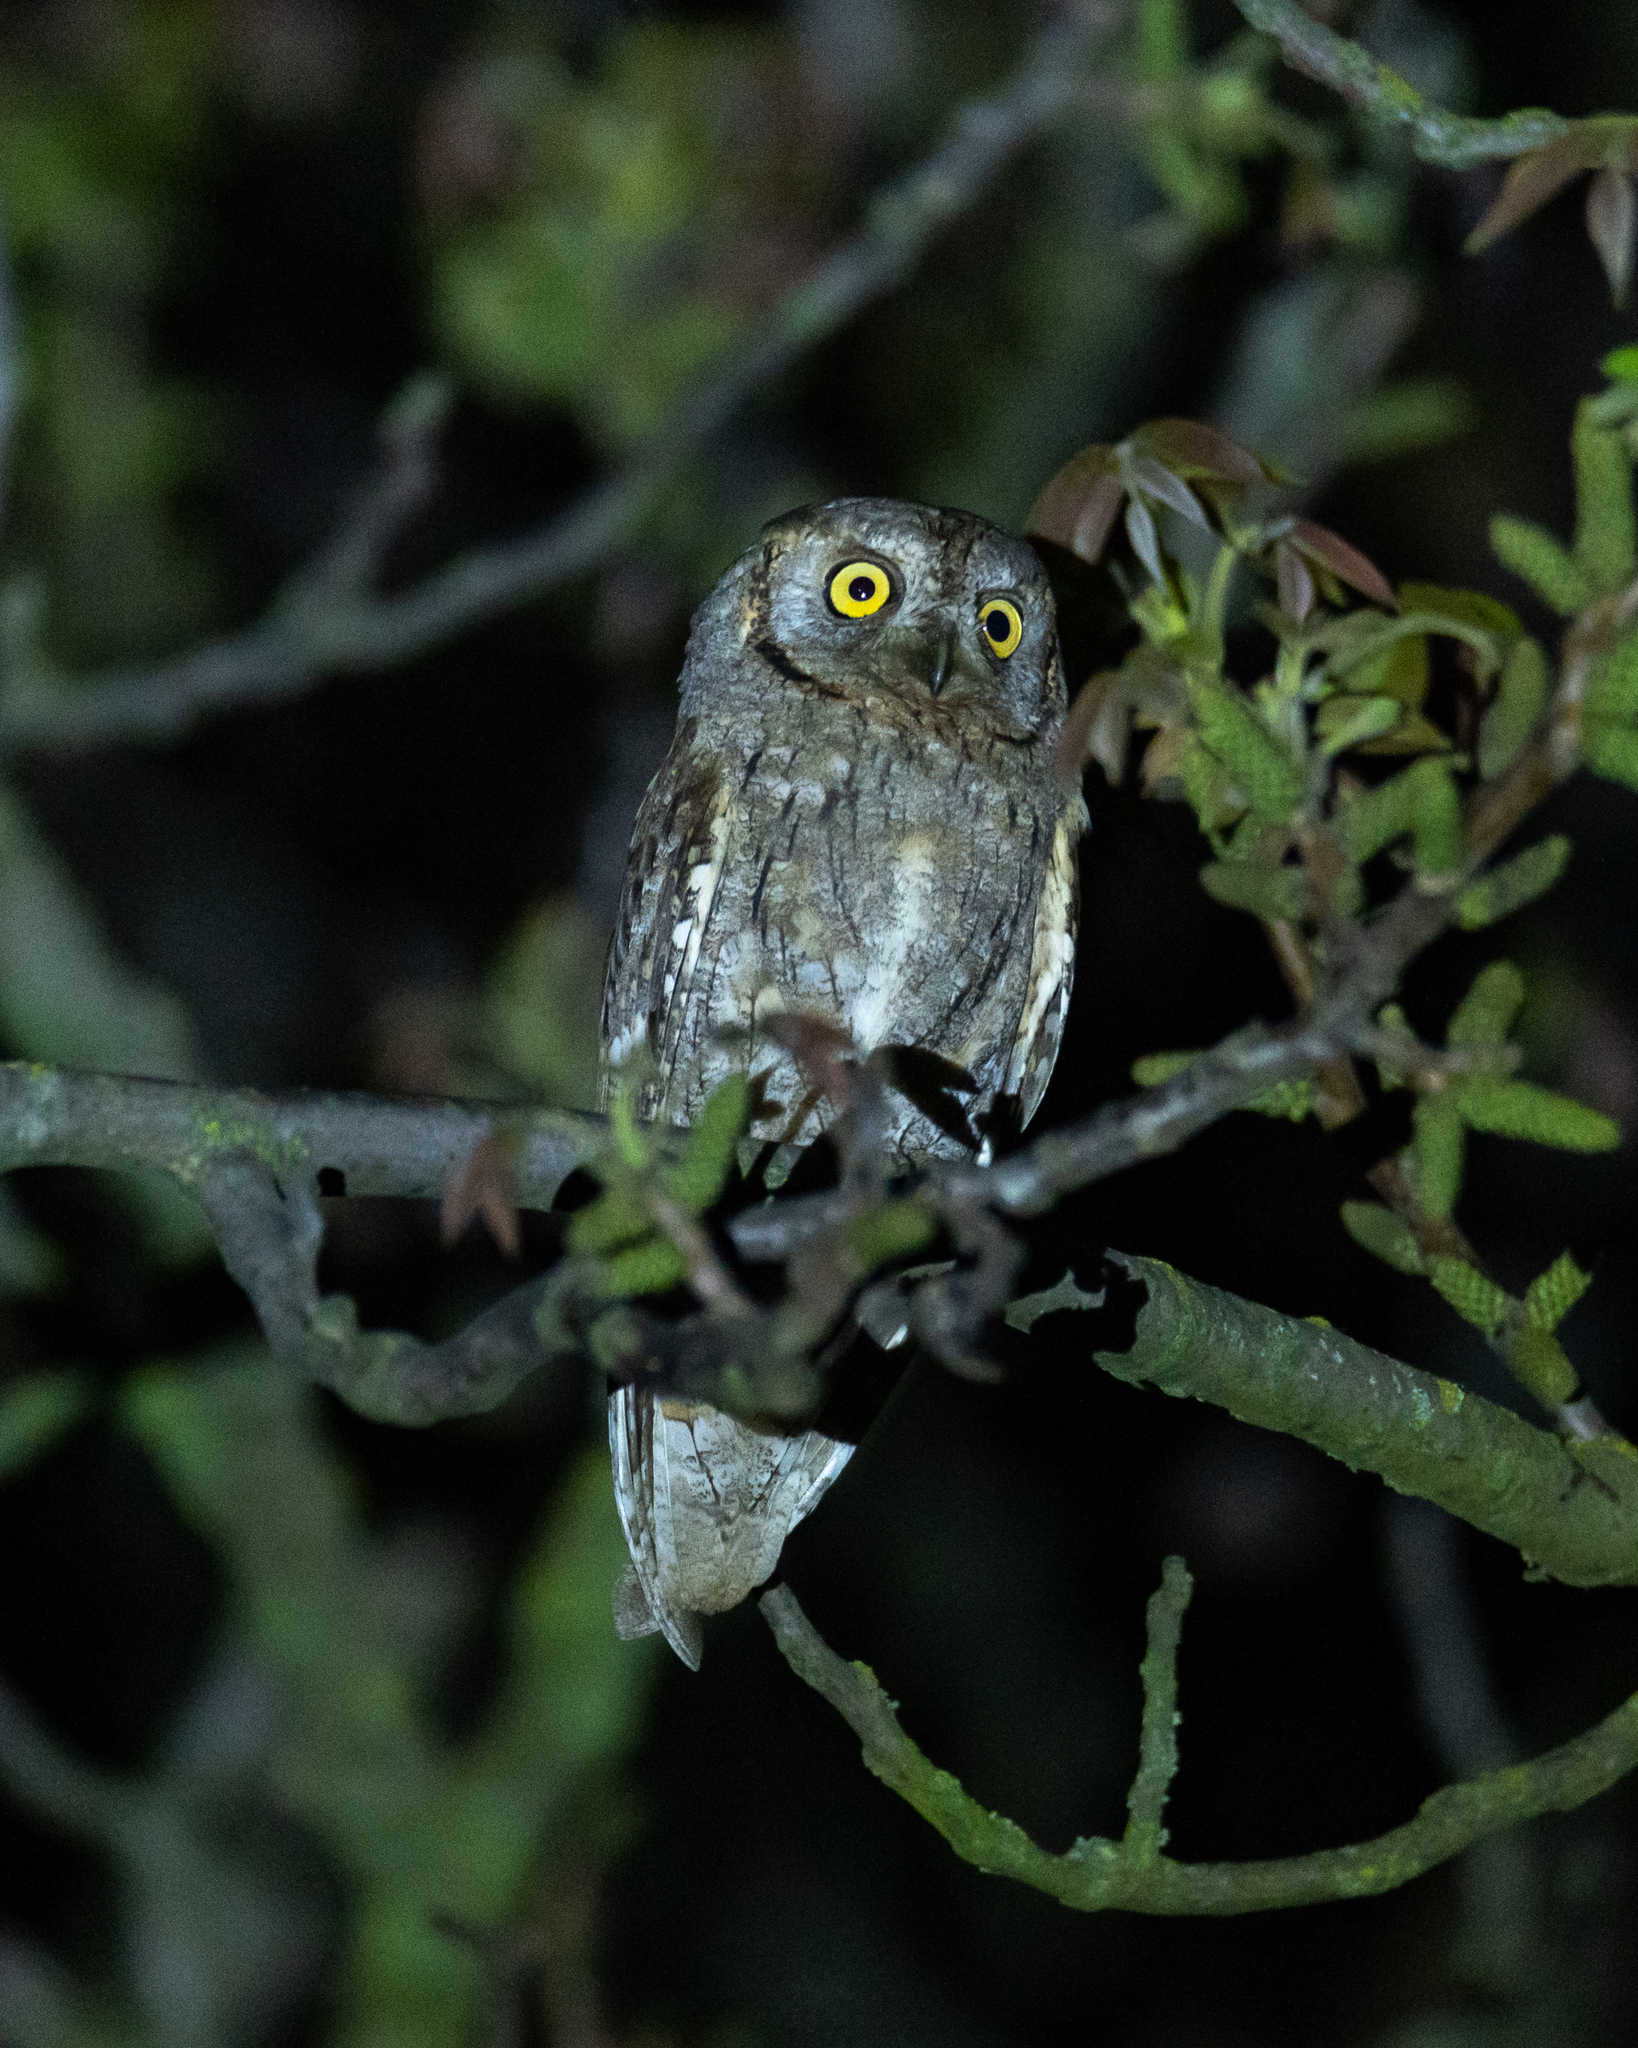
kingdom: Animalia
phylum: Chordata
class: Aves
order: Strigiformes
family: Strigidae
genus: Otus
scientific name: Otus scops
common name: Eurasian scops owl
